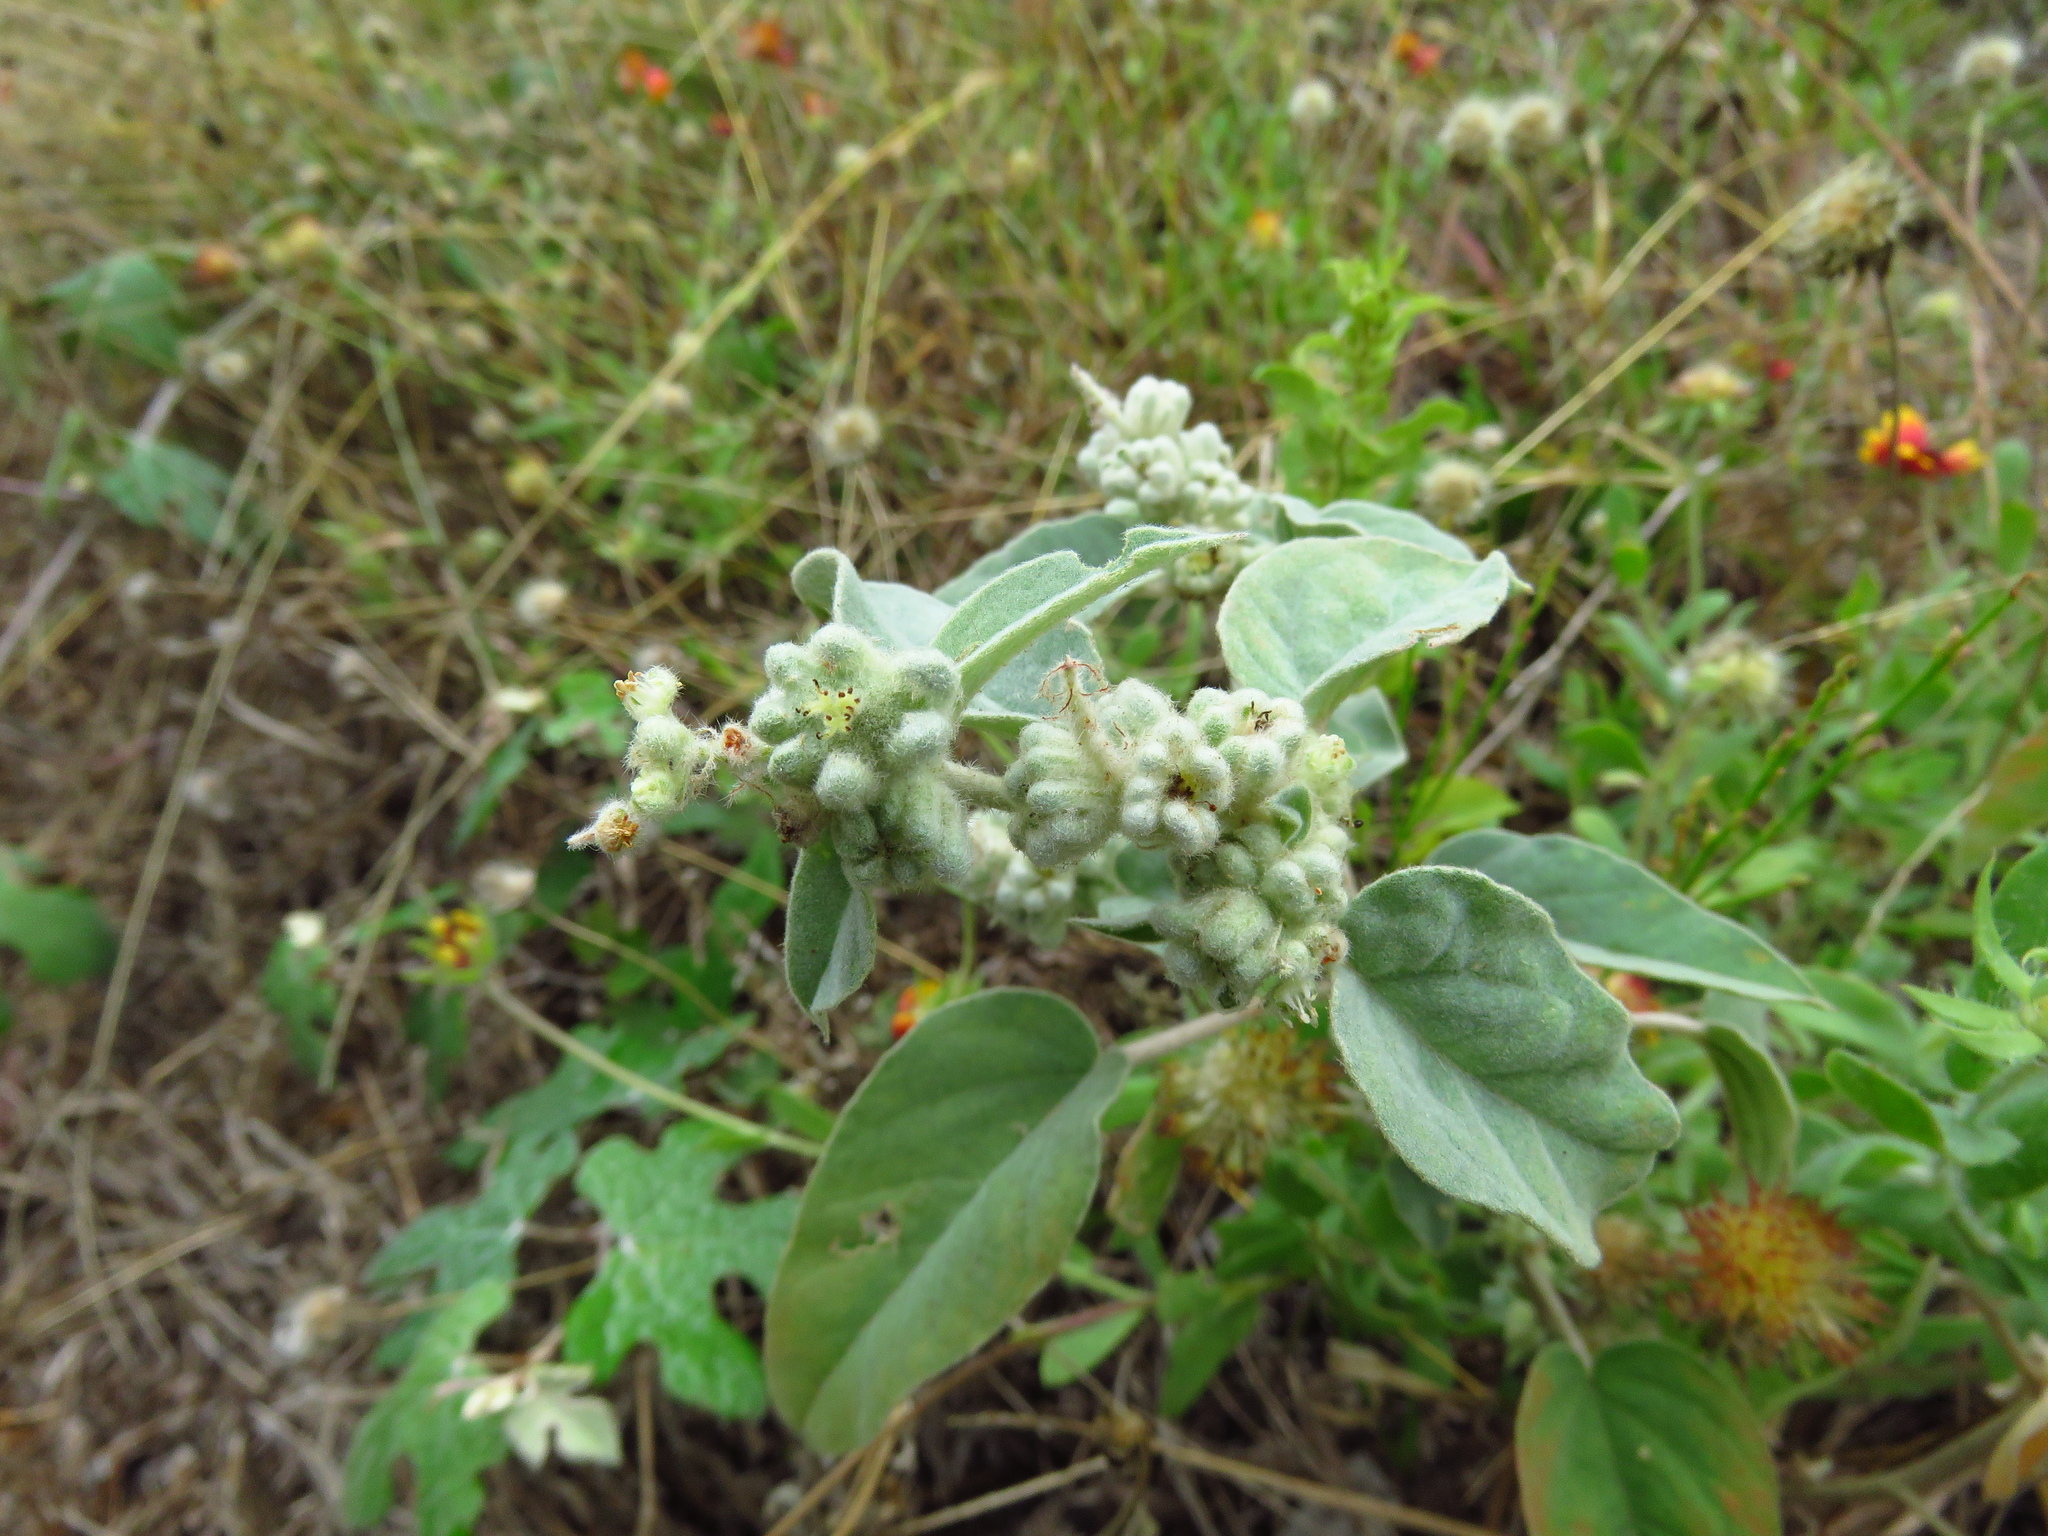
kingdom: Plantae
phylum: Tracheophyta
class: Magnoliopsida
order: Malpighiales
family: Euphorbiaceae
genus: Croton
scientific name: Croton lindheimeri
